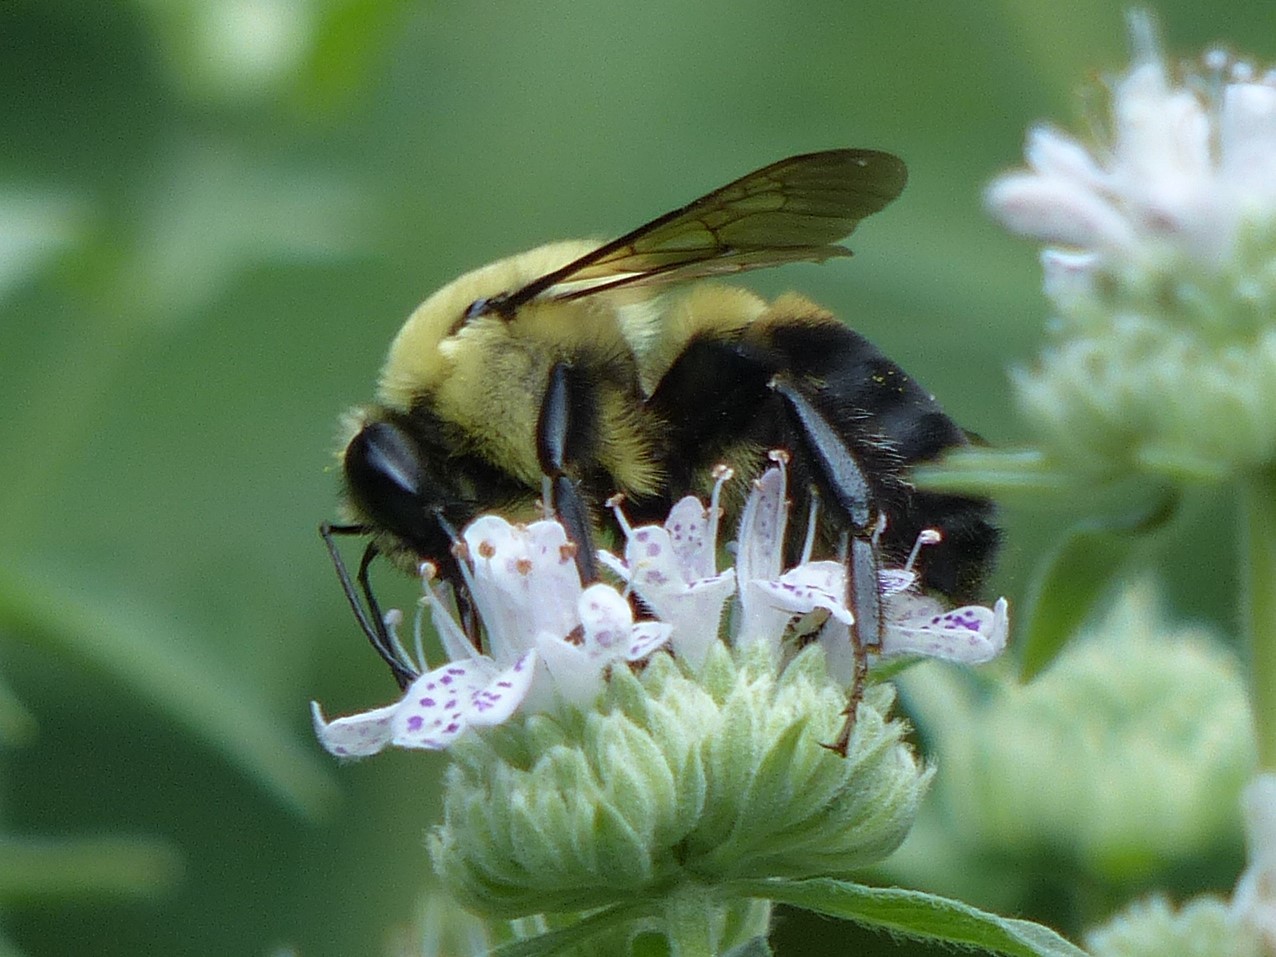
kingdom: Animalia
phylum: Arthropoda
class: Insecta
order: Hymenoptera
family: Apidae
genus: Bombus
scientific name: Bombus griseocollis
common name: Brown-belted bumble bee
